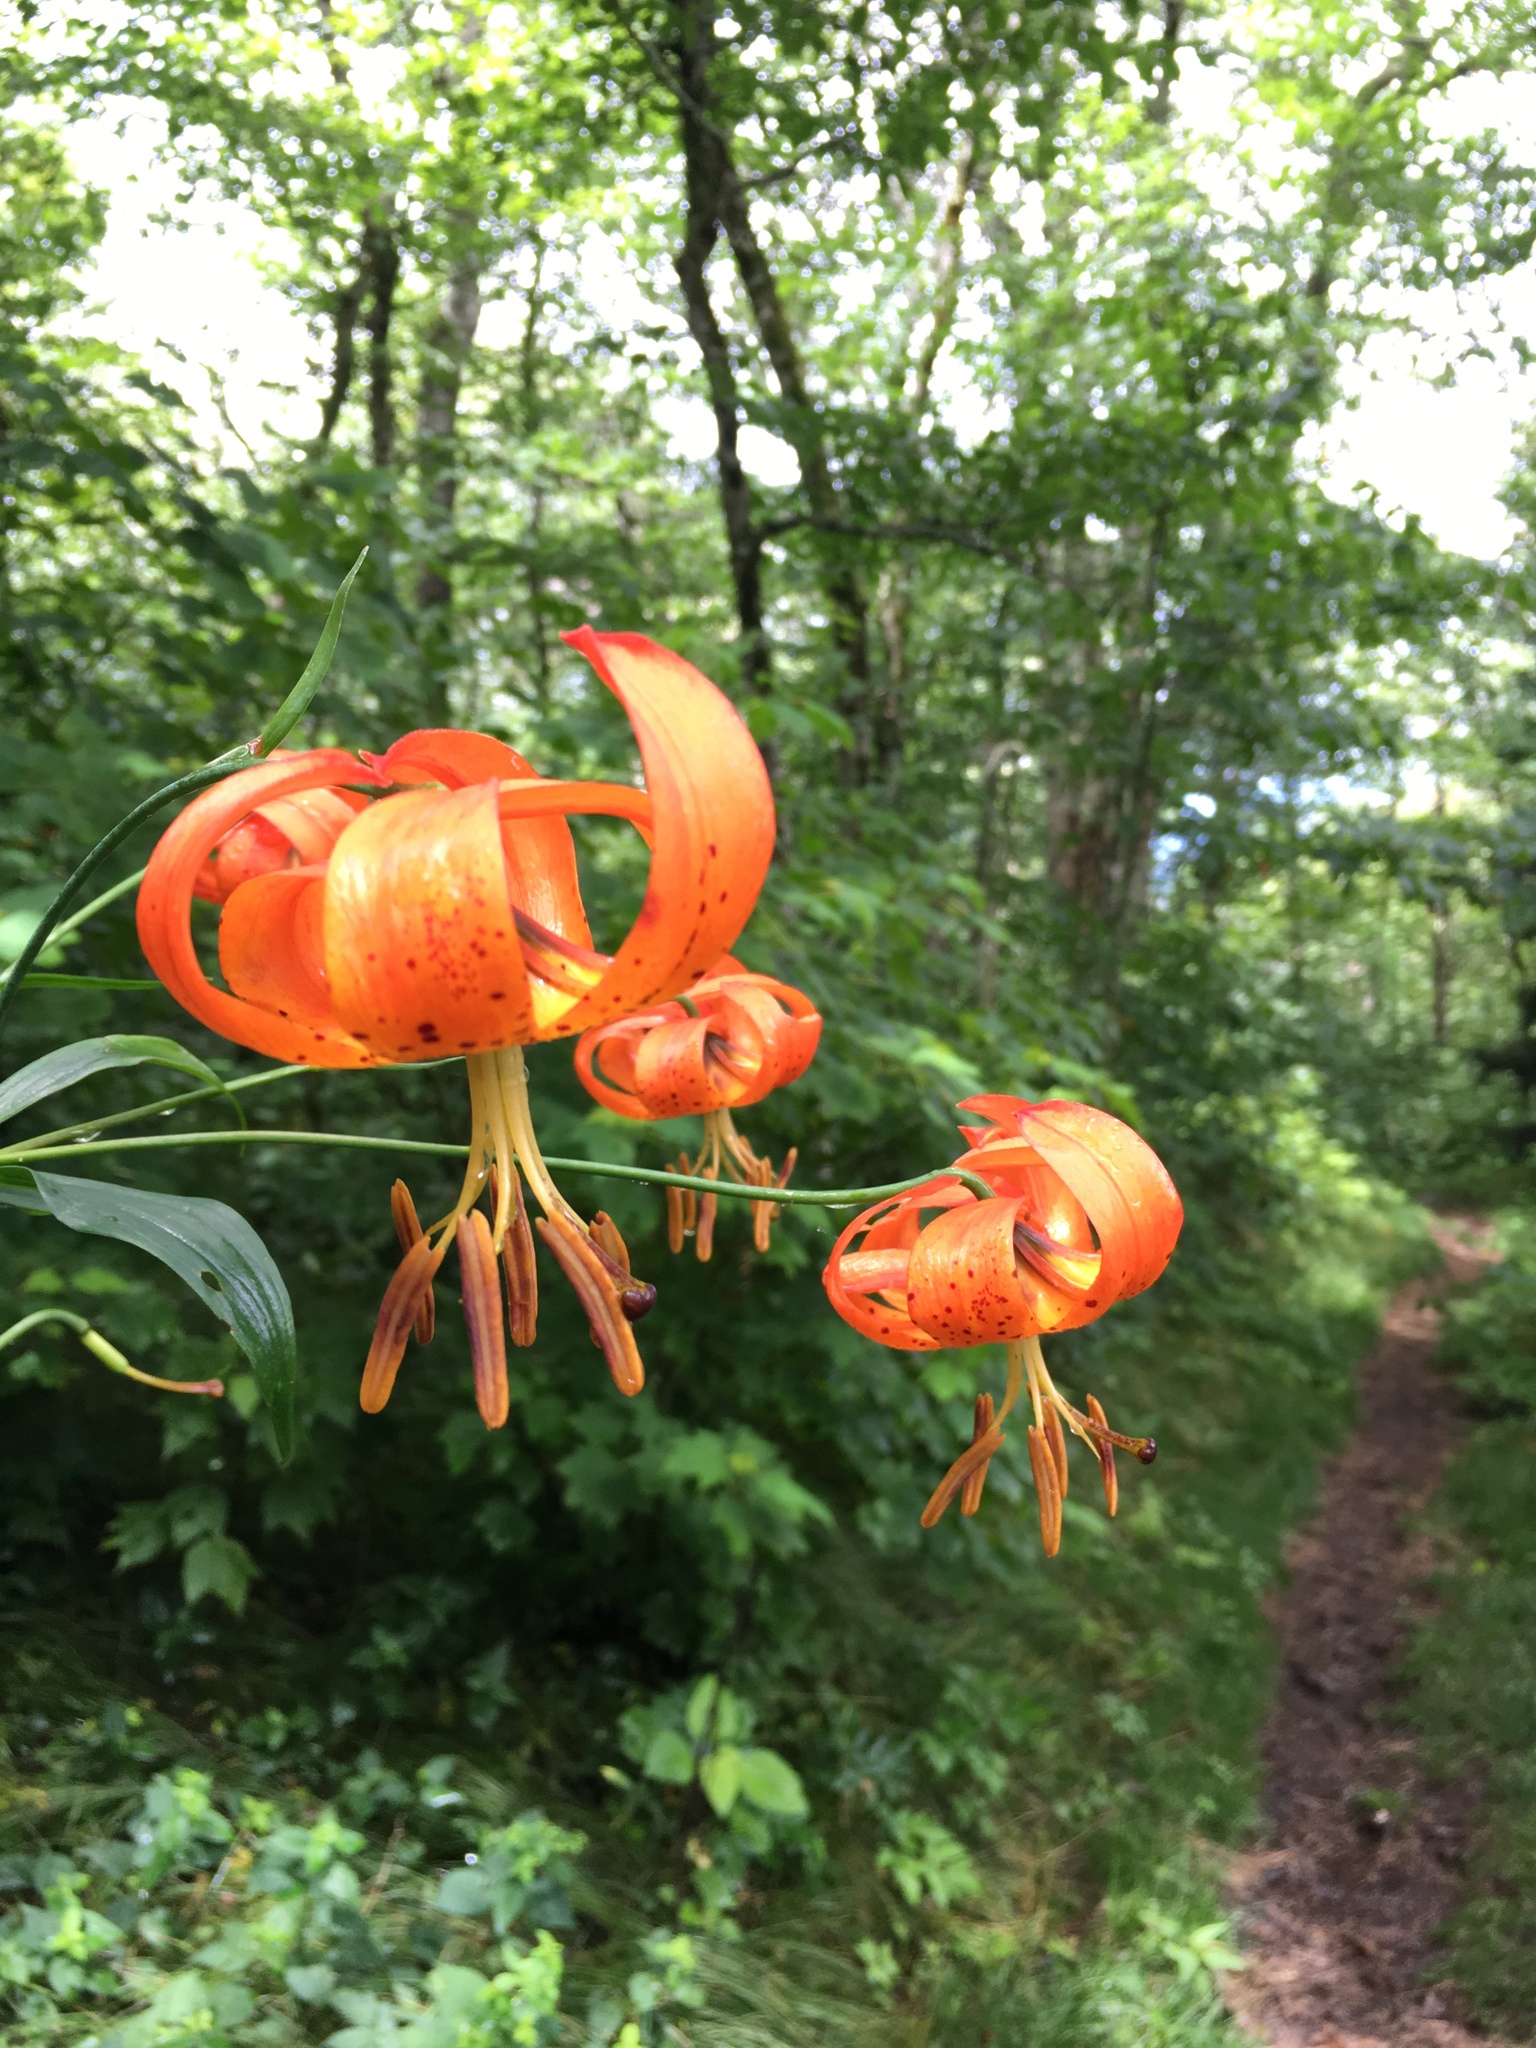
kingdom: Plantae
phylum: Tracheophyta
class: Liliopsida
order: Liliales
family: Liliaceae
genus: Lilium
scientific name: Lilium superbum
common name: American turk's-cap lily
